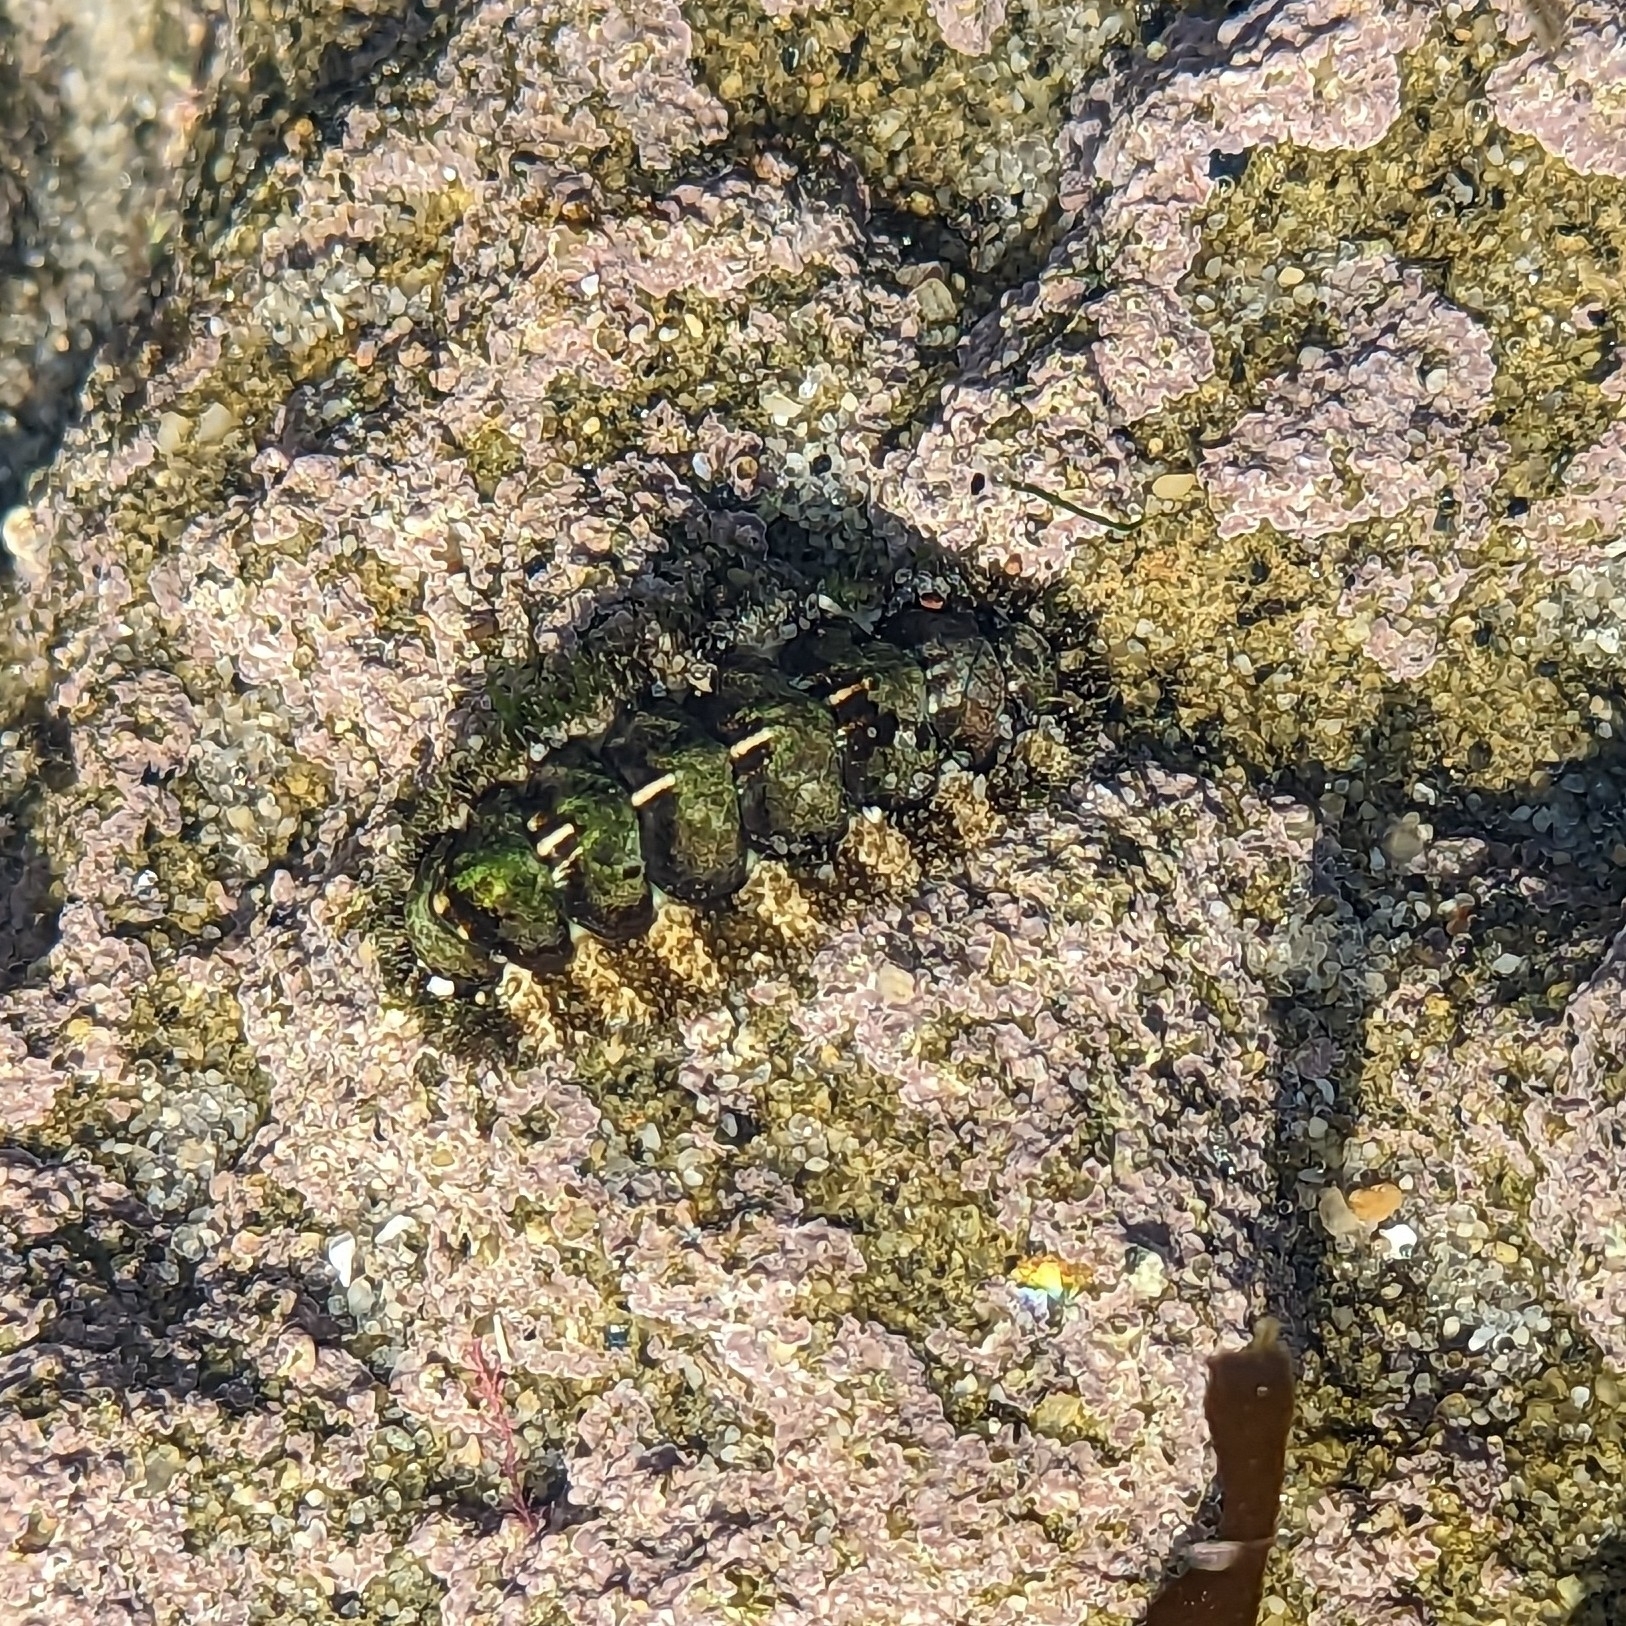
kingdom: Animalia
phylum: Mollusca
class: Polyplacophora
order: Chitonida
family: Tonicellidae
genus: Nuttallina
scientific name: Nuttallina californica
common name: California nuttall chiton
